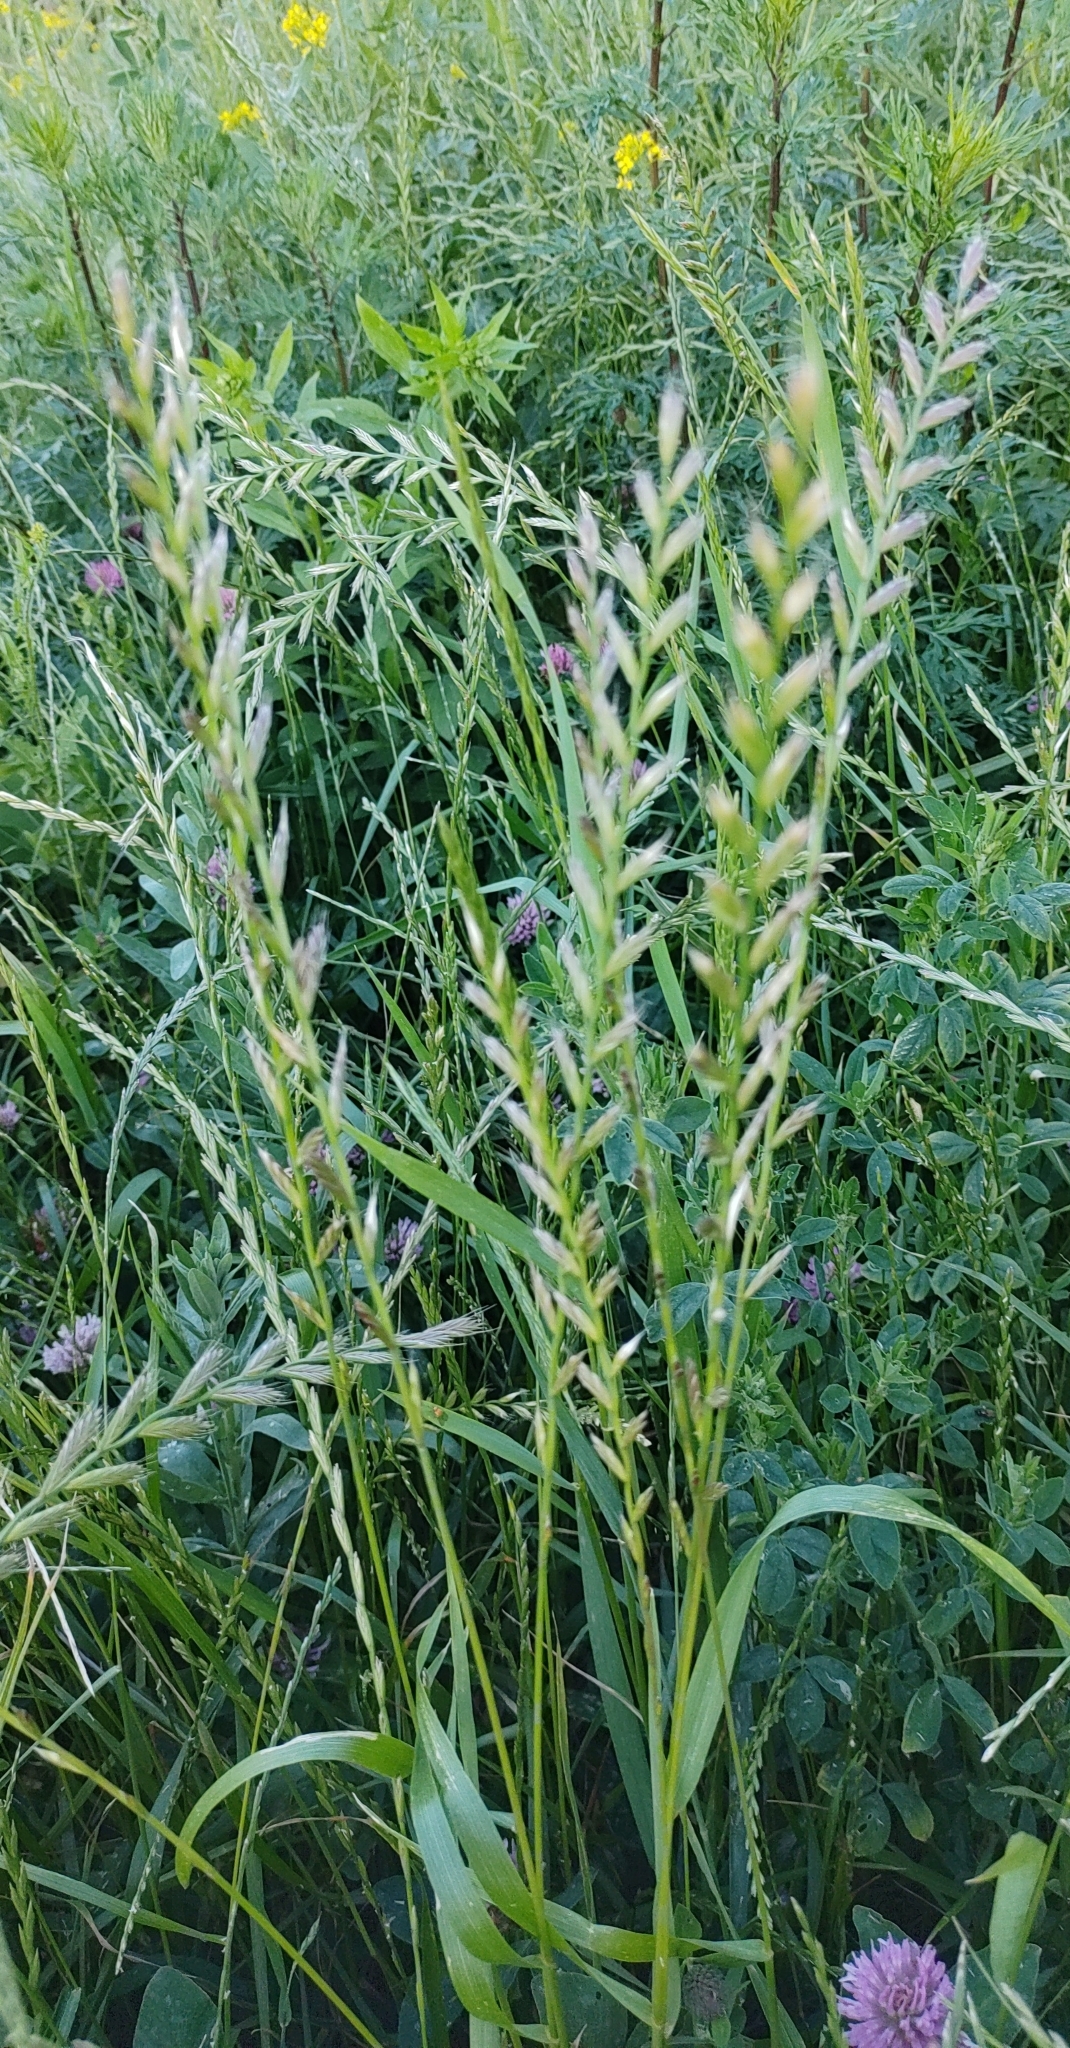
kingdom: Plantae
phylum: Tracheophyta
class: Liliopsida
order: Poales
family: Poaceae
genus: Lolium
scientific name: Lolium multiflorum
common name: Annual ryegrass
